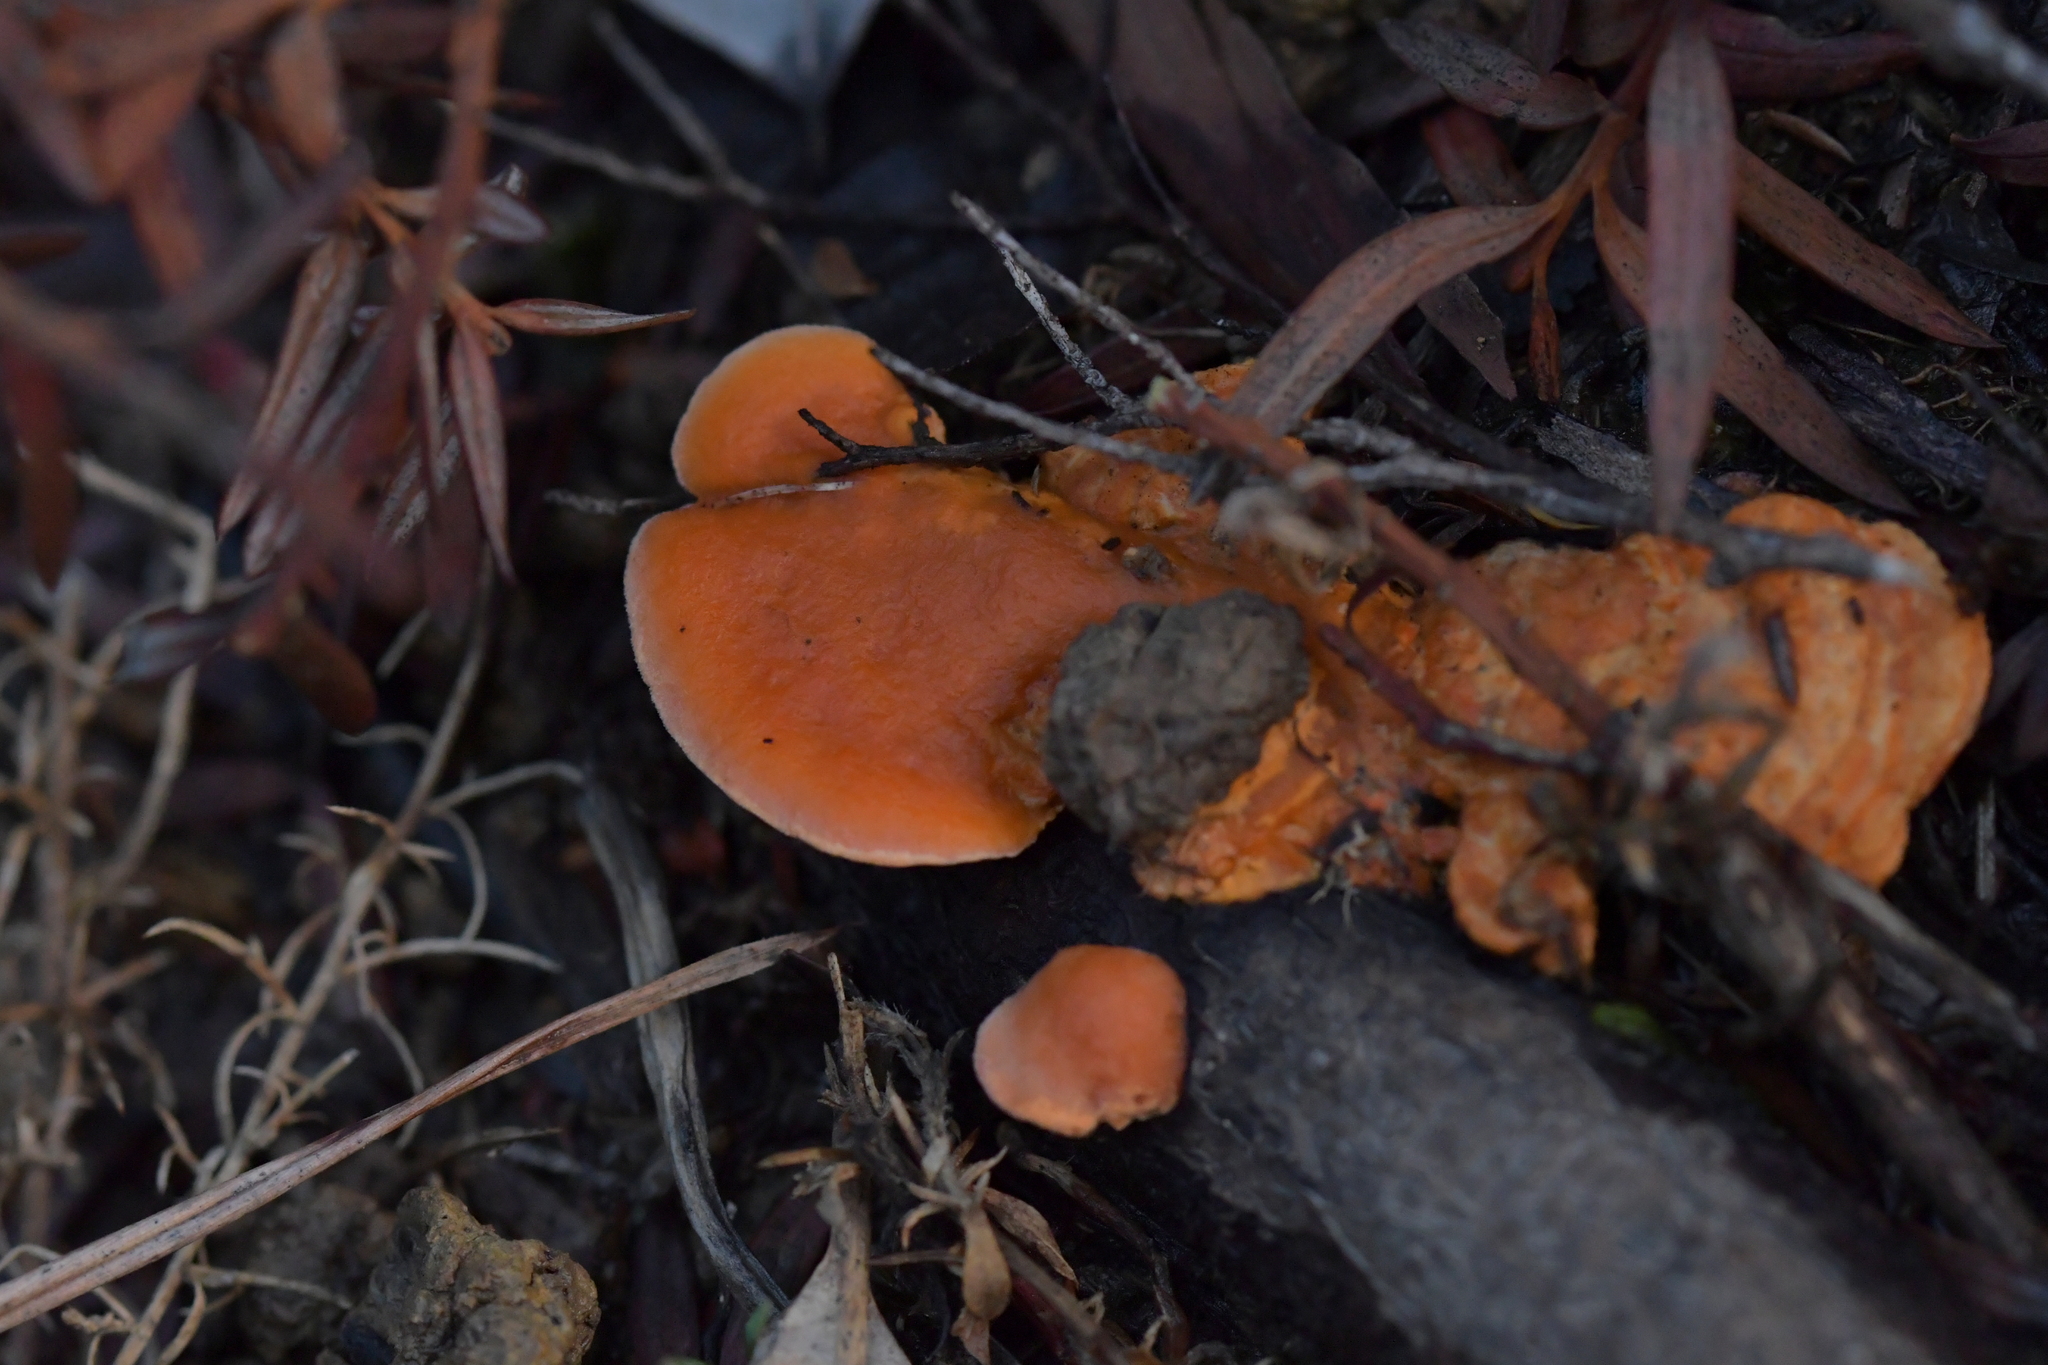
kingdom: Fungi
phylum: Basidiomycota
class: Agaricomycetes
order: Polyporales
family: Polyporaceae
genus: Trametes
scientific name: Trametes coccinea
